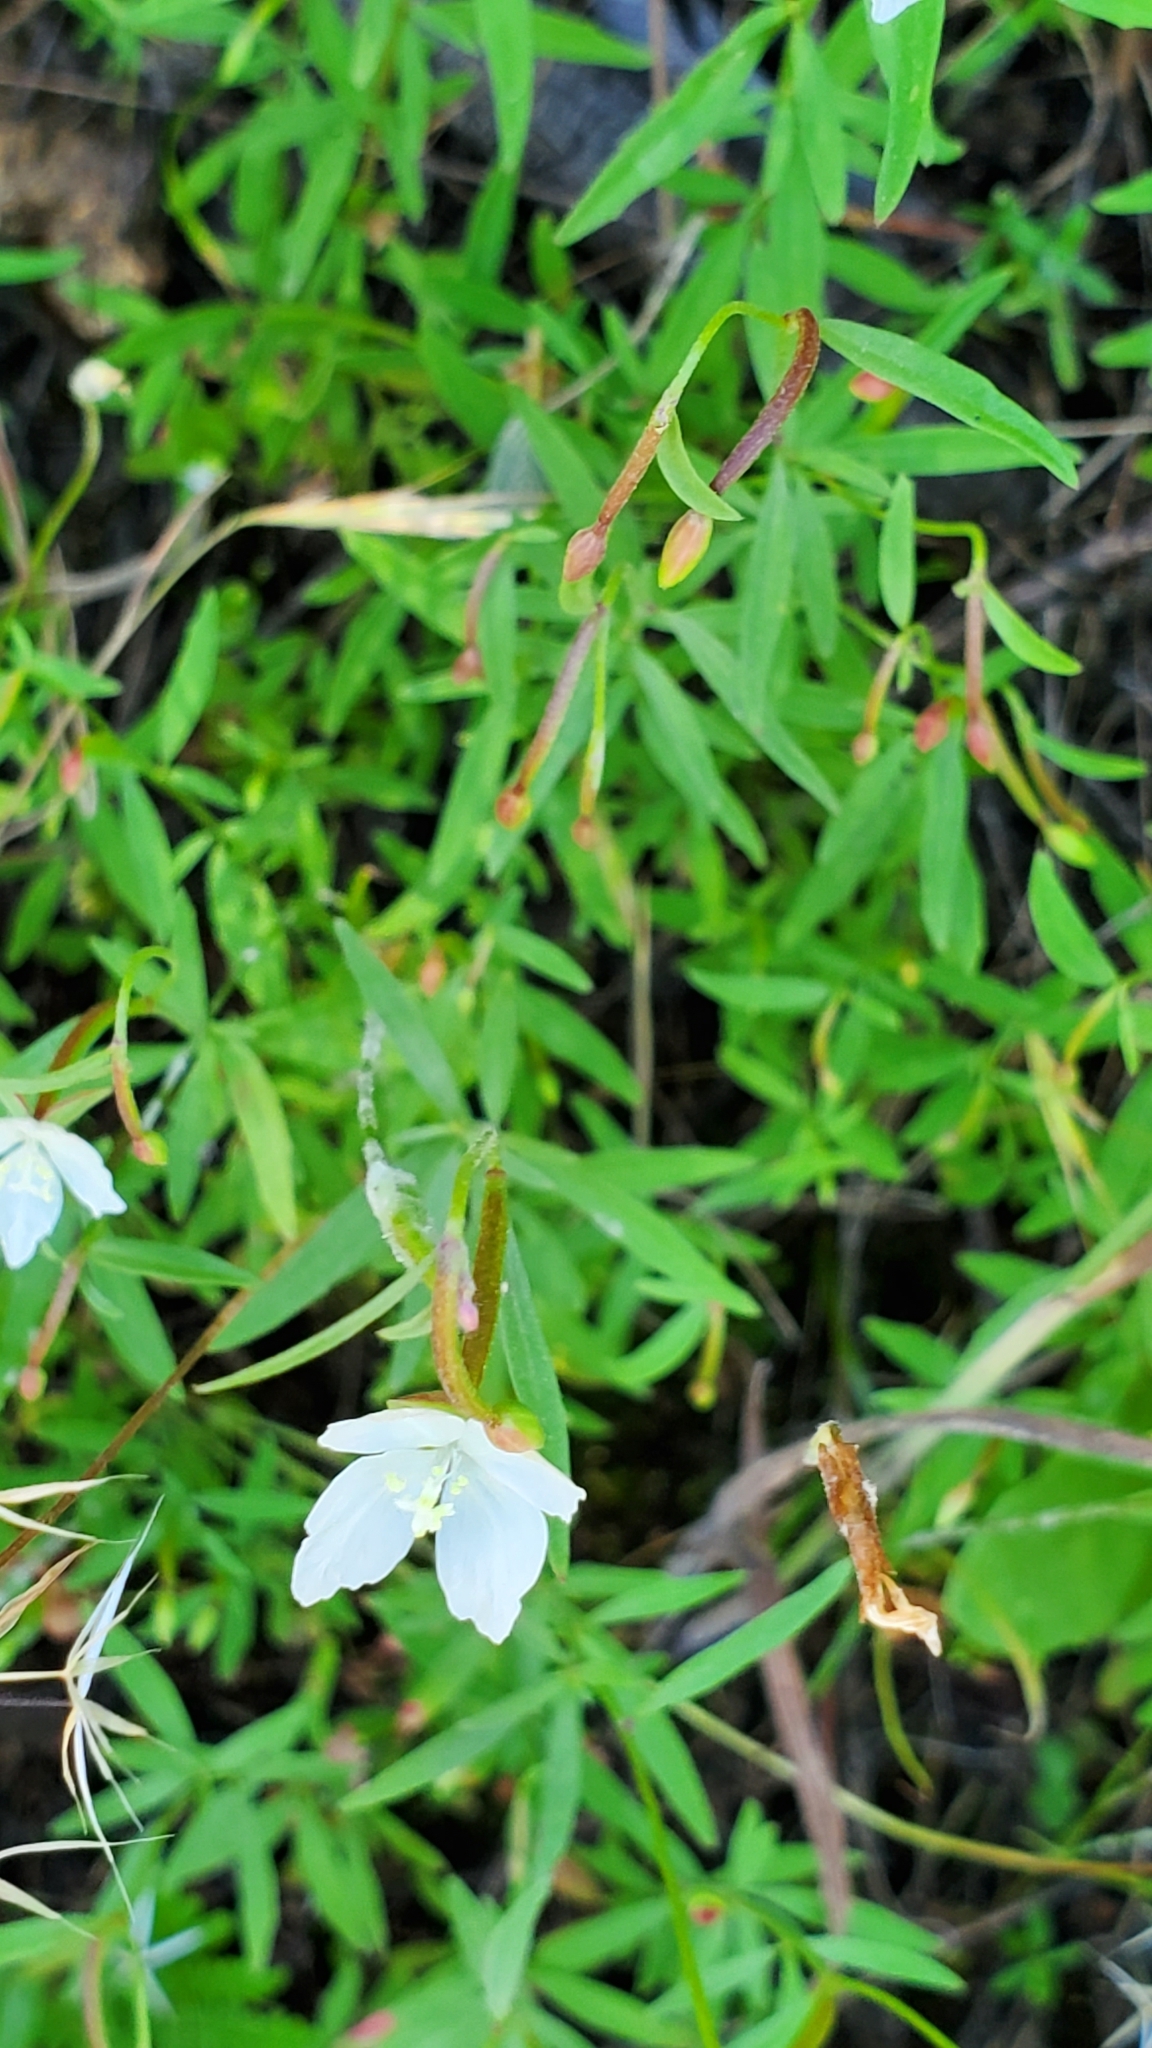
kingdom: Plantae
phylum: Tracheophyta
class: Magnoliopsida
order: Myrtales
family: Onagraceae
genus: Clarkia
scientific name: Clarkia epilobioides
